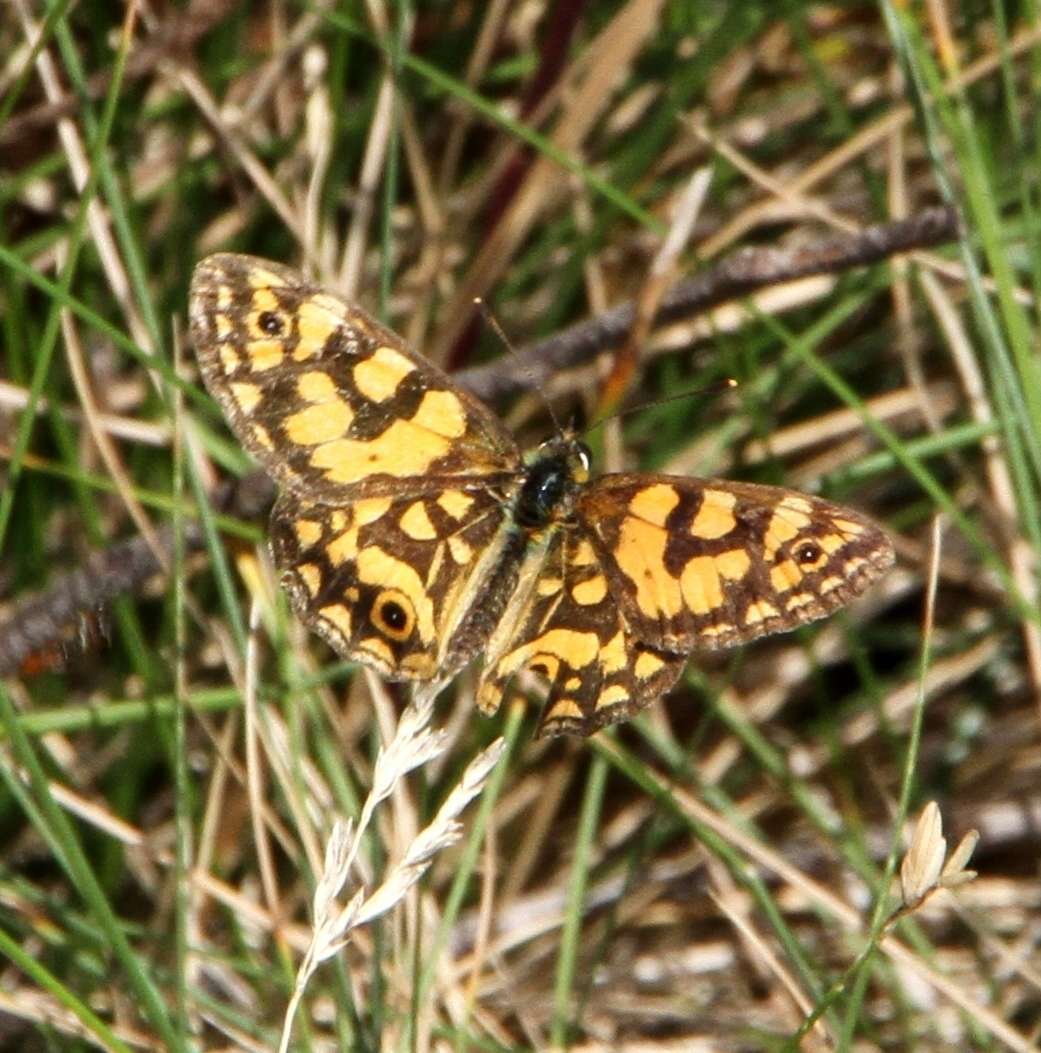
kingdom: Animalia
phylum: Arthropoda
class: Insecta
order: Lepidoptera
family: Nymphalidae
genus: Oreixenica
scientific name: Oreixenica lathoniella
